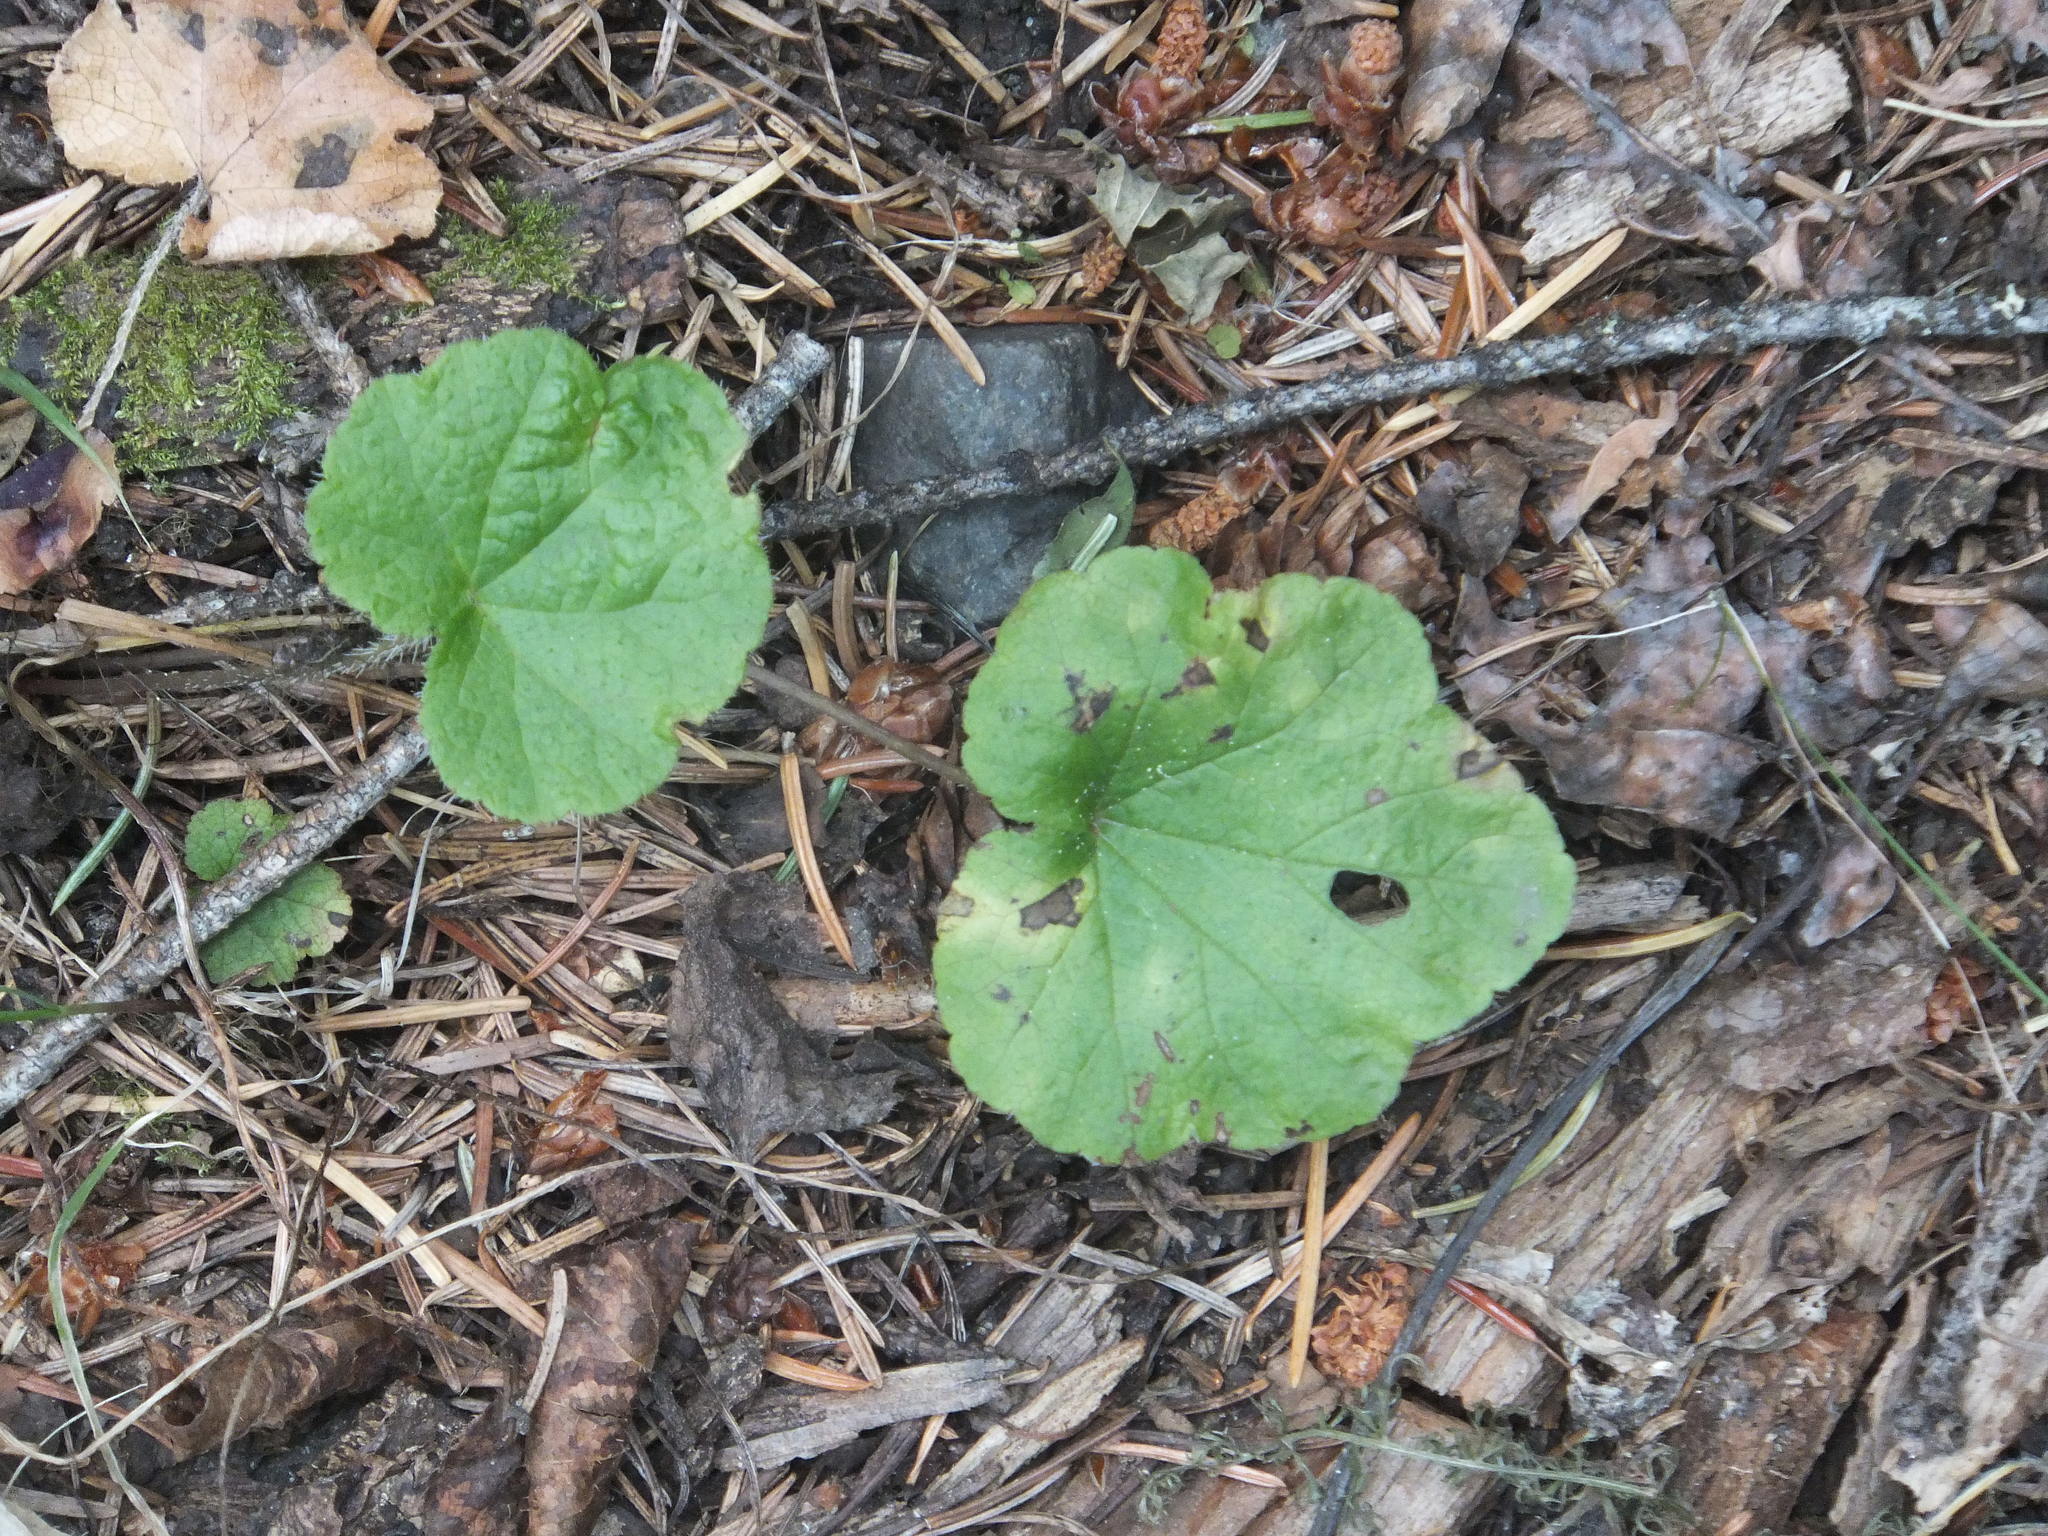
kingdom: Plantae
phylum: Tracheophyta
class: Magnoliopsida
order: Saxifragales
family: Saxifragaceae
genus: Ozomelis
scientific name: Ozomelis trifida
